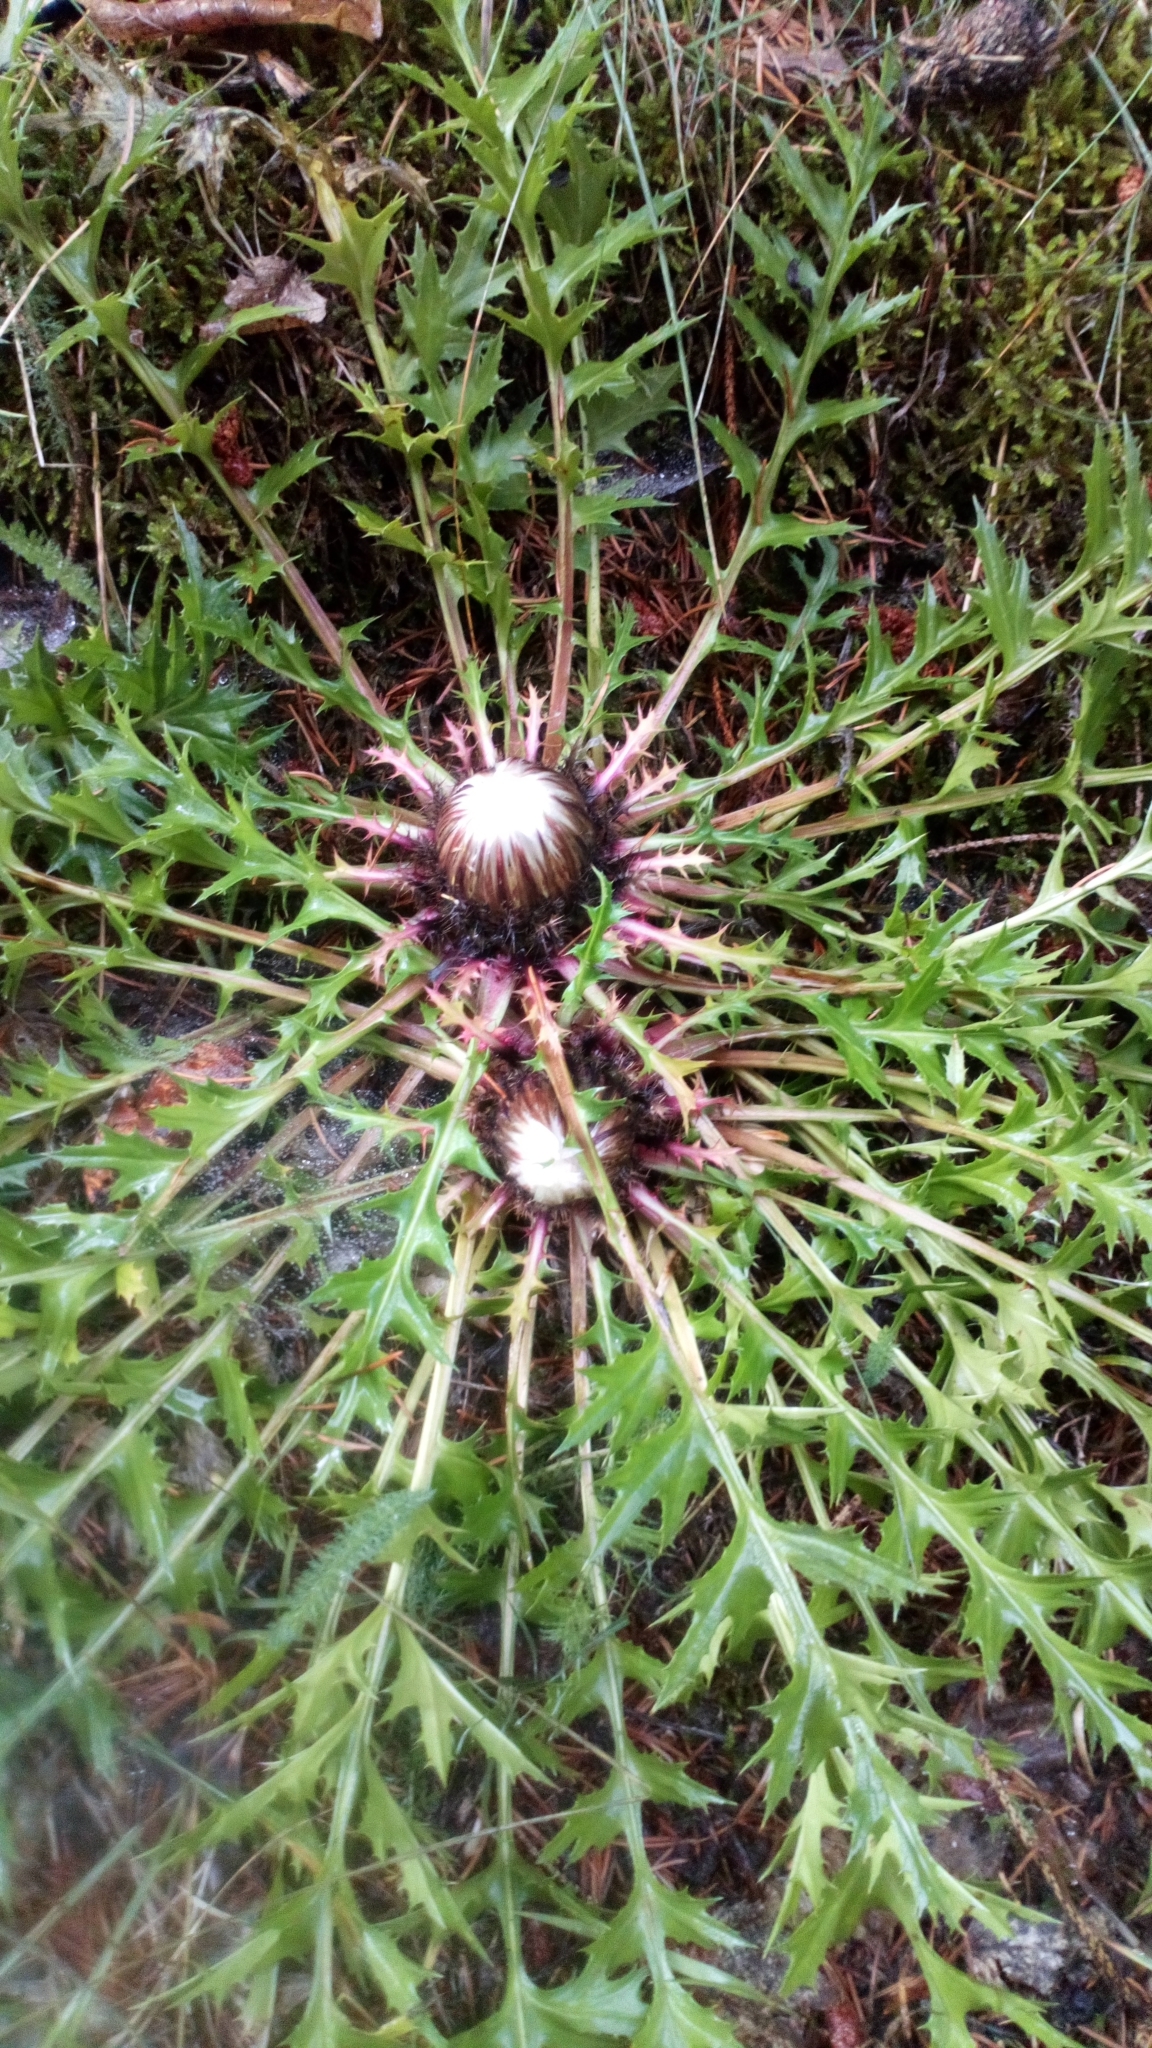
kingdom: Plantae
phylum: Tracheophyta
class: Magnoliopsida
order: Asterales
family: Asteraceae
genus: Carlina
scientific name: Carlina acaulis
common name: Stemless carline thistle
